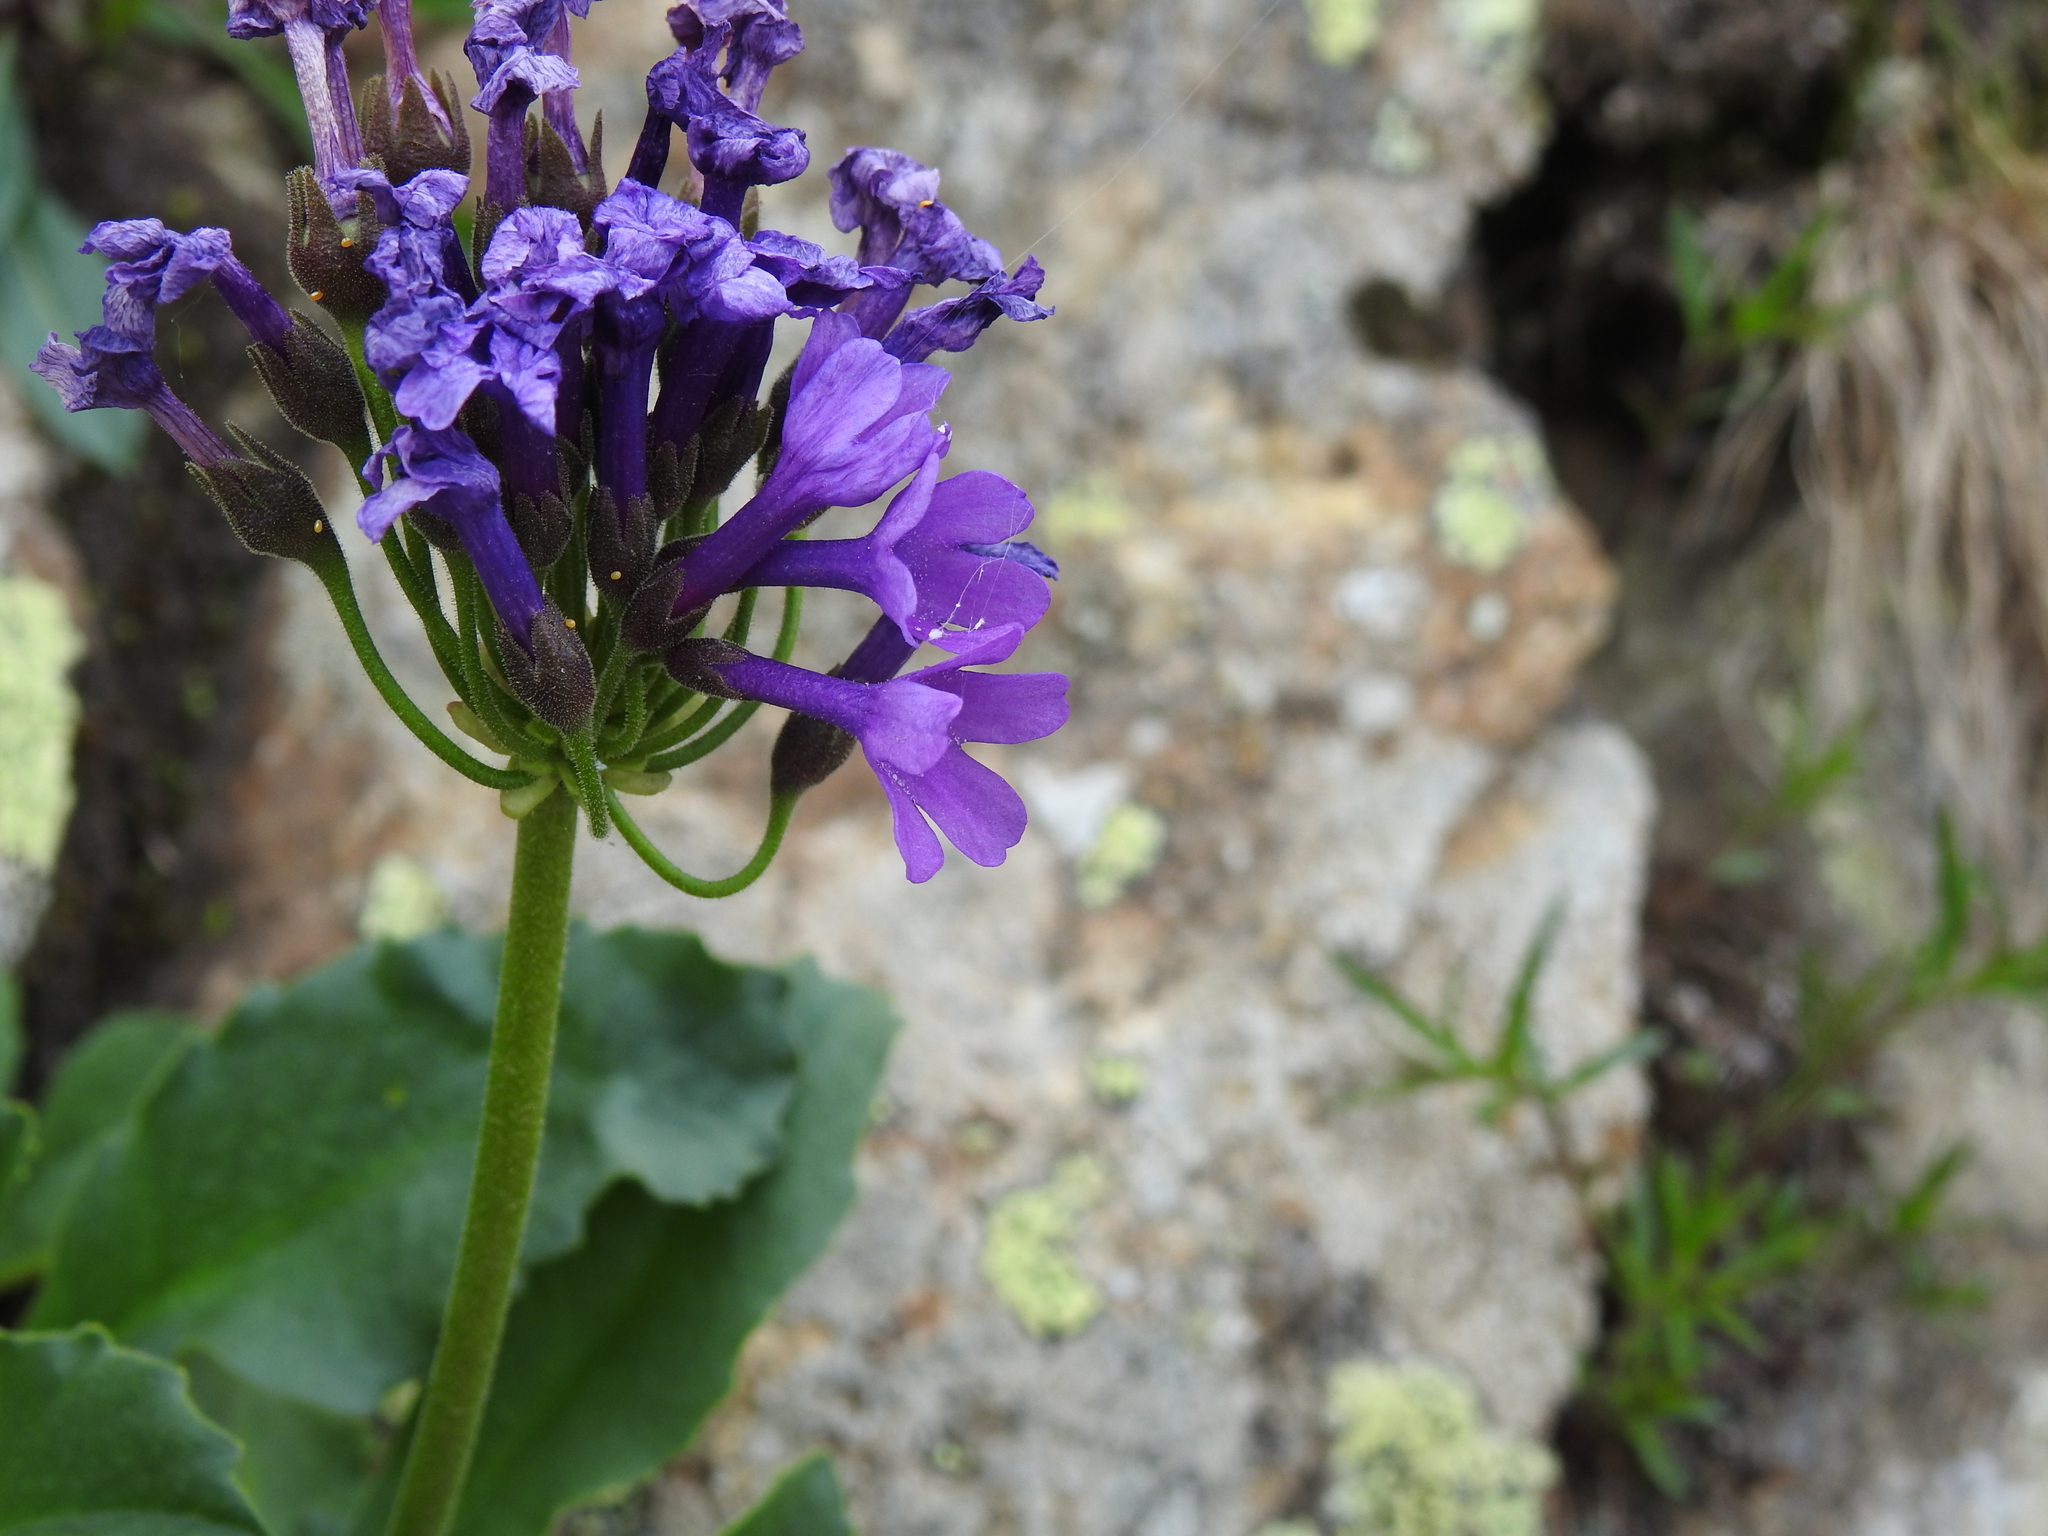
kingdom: Plantae
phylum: Tracheophyta
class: Magnoliopsida
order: Ericales
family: Primulaceae
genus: Primula
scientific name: Primula latifolia
